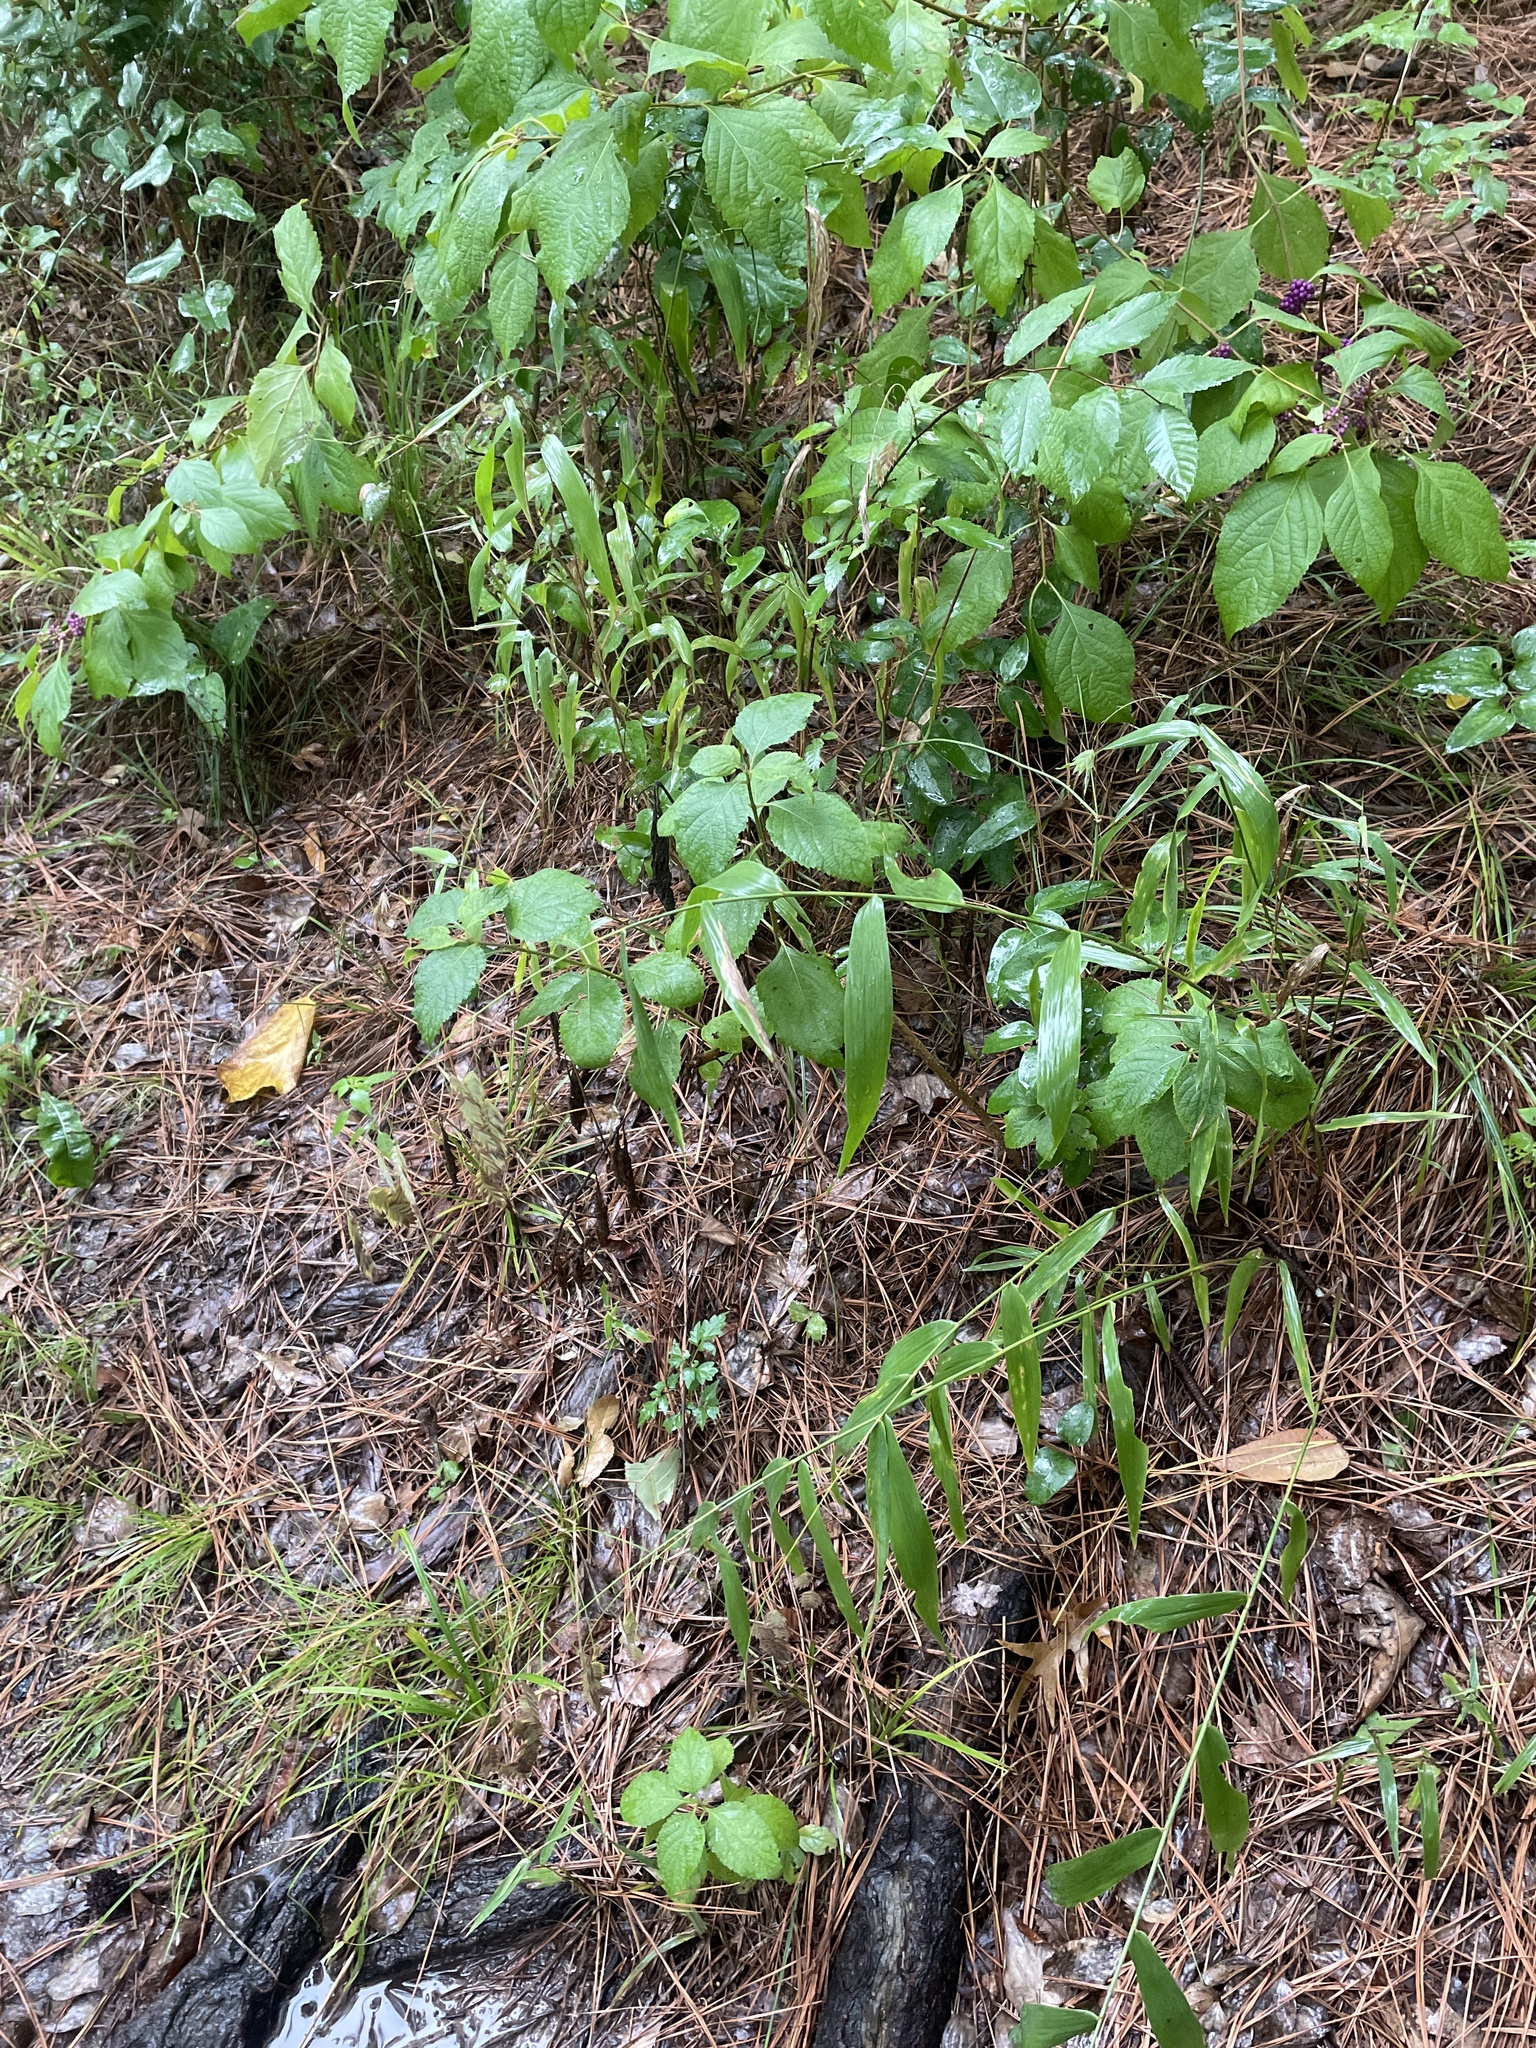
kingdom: Plantae
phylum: Tracheophyta
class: Liliopsida
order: Poales
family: Poaceae
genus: Chasmanthium
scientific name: Chasmanthium latifolium
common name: Broad-leaved chasmanthium
